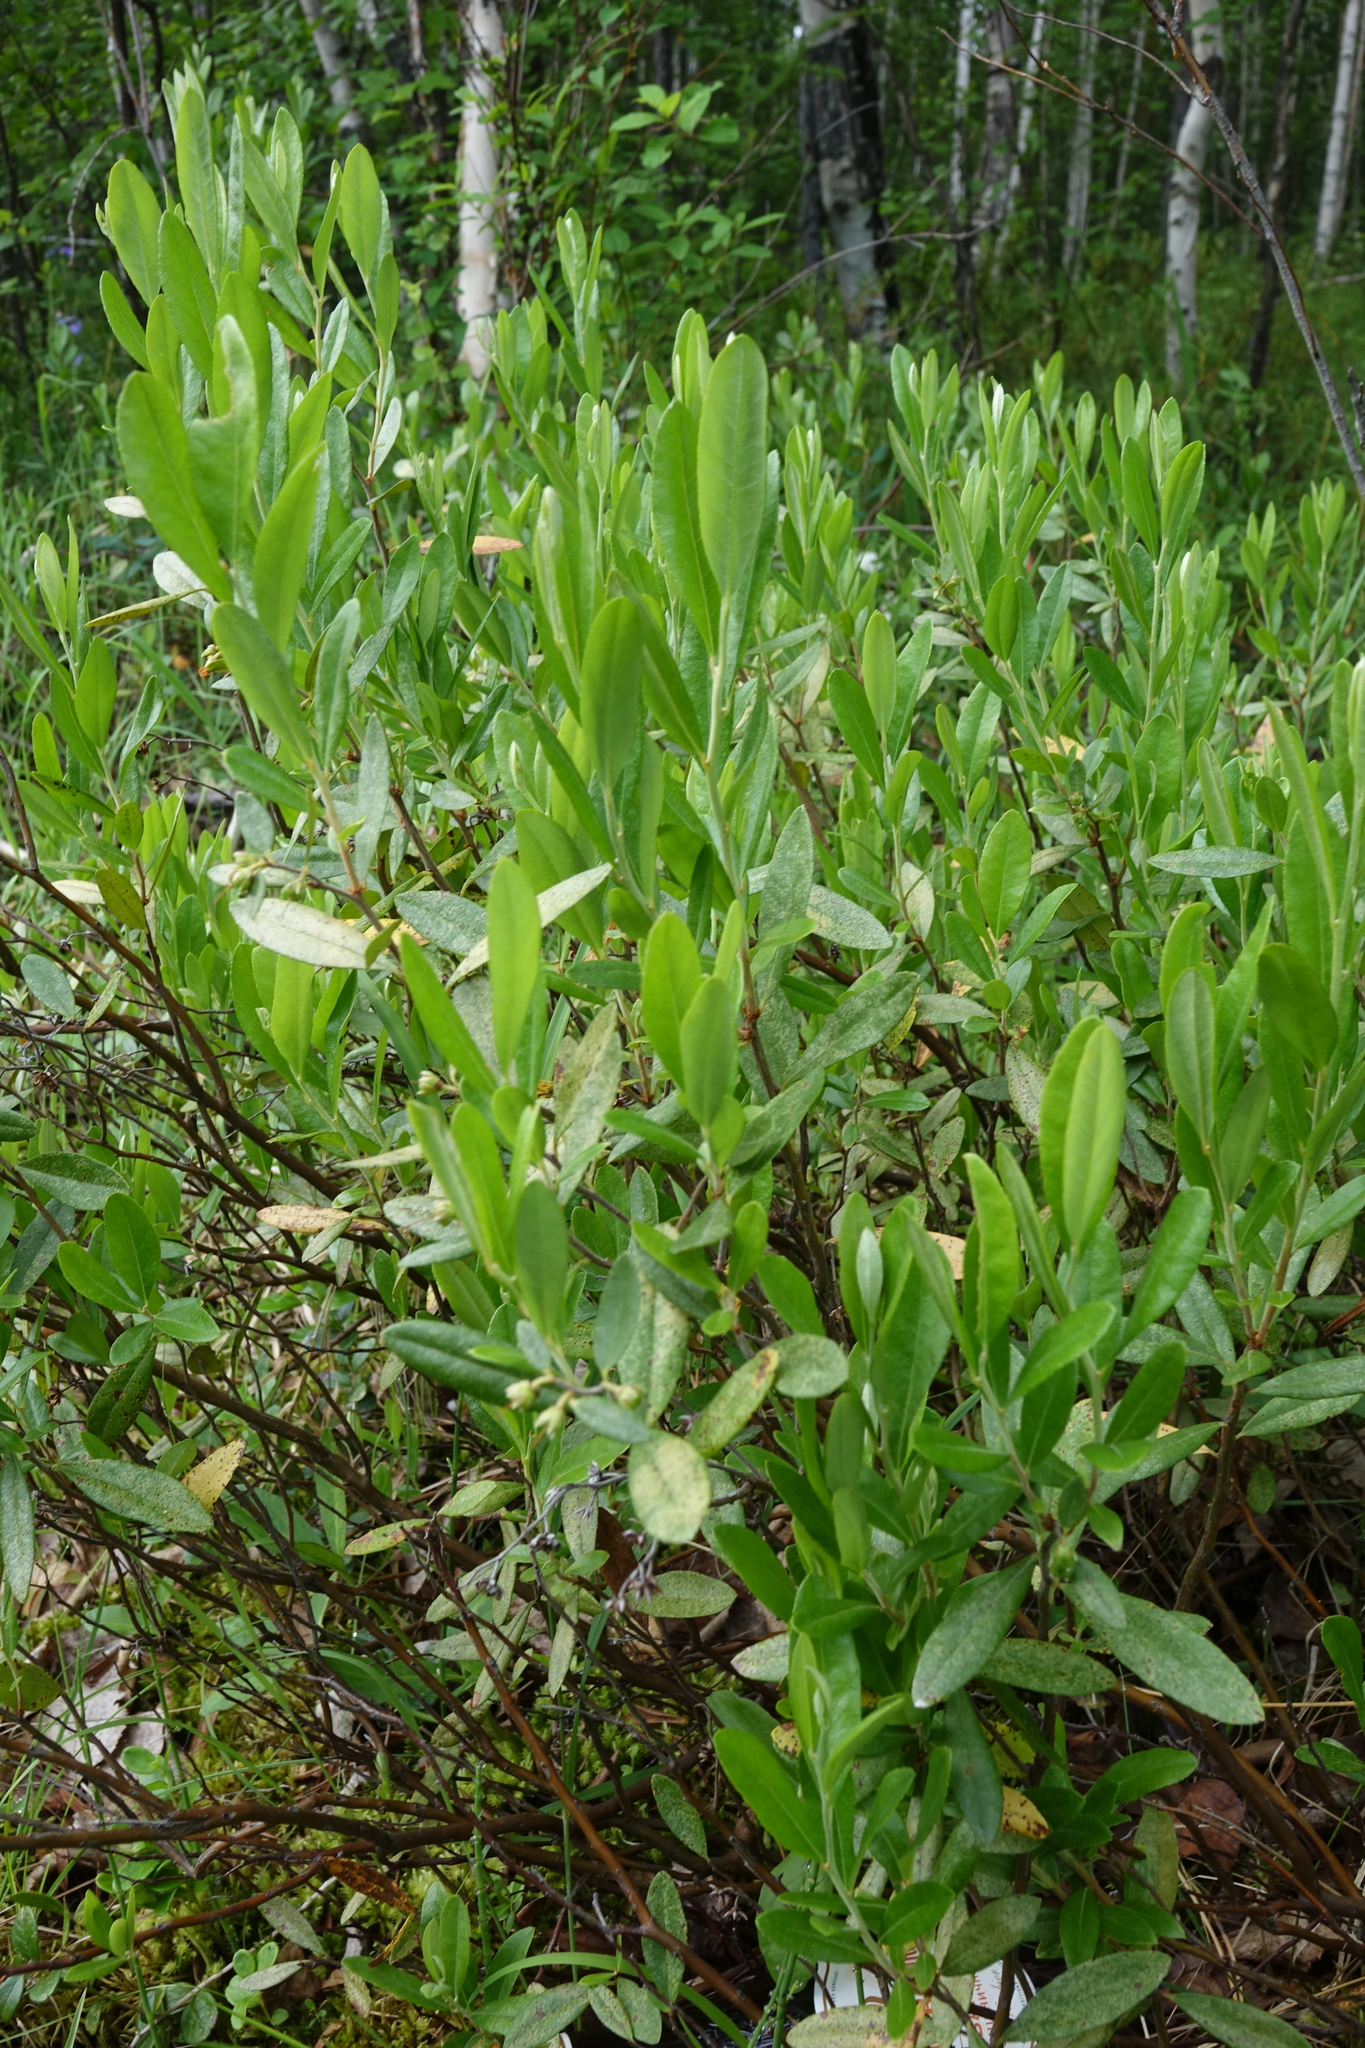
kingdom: Plantae
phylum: Tracheophyta
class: Magnoliopsida
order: Ericales
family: Ericaceae
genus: Chamaedaphne
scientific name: Chamaedaphne calyculata
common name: Leatherleaf
